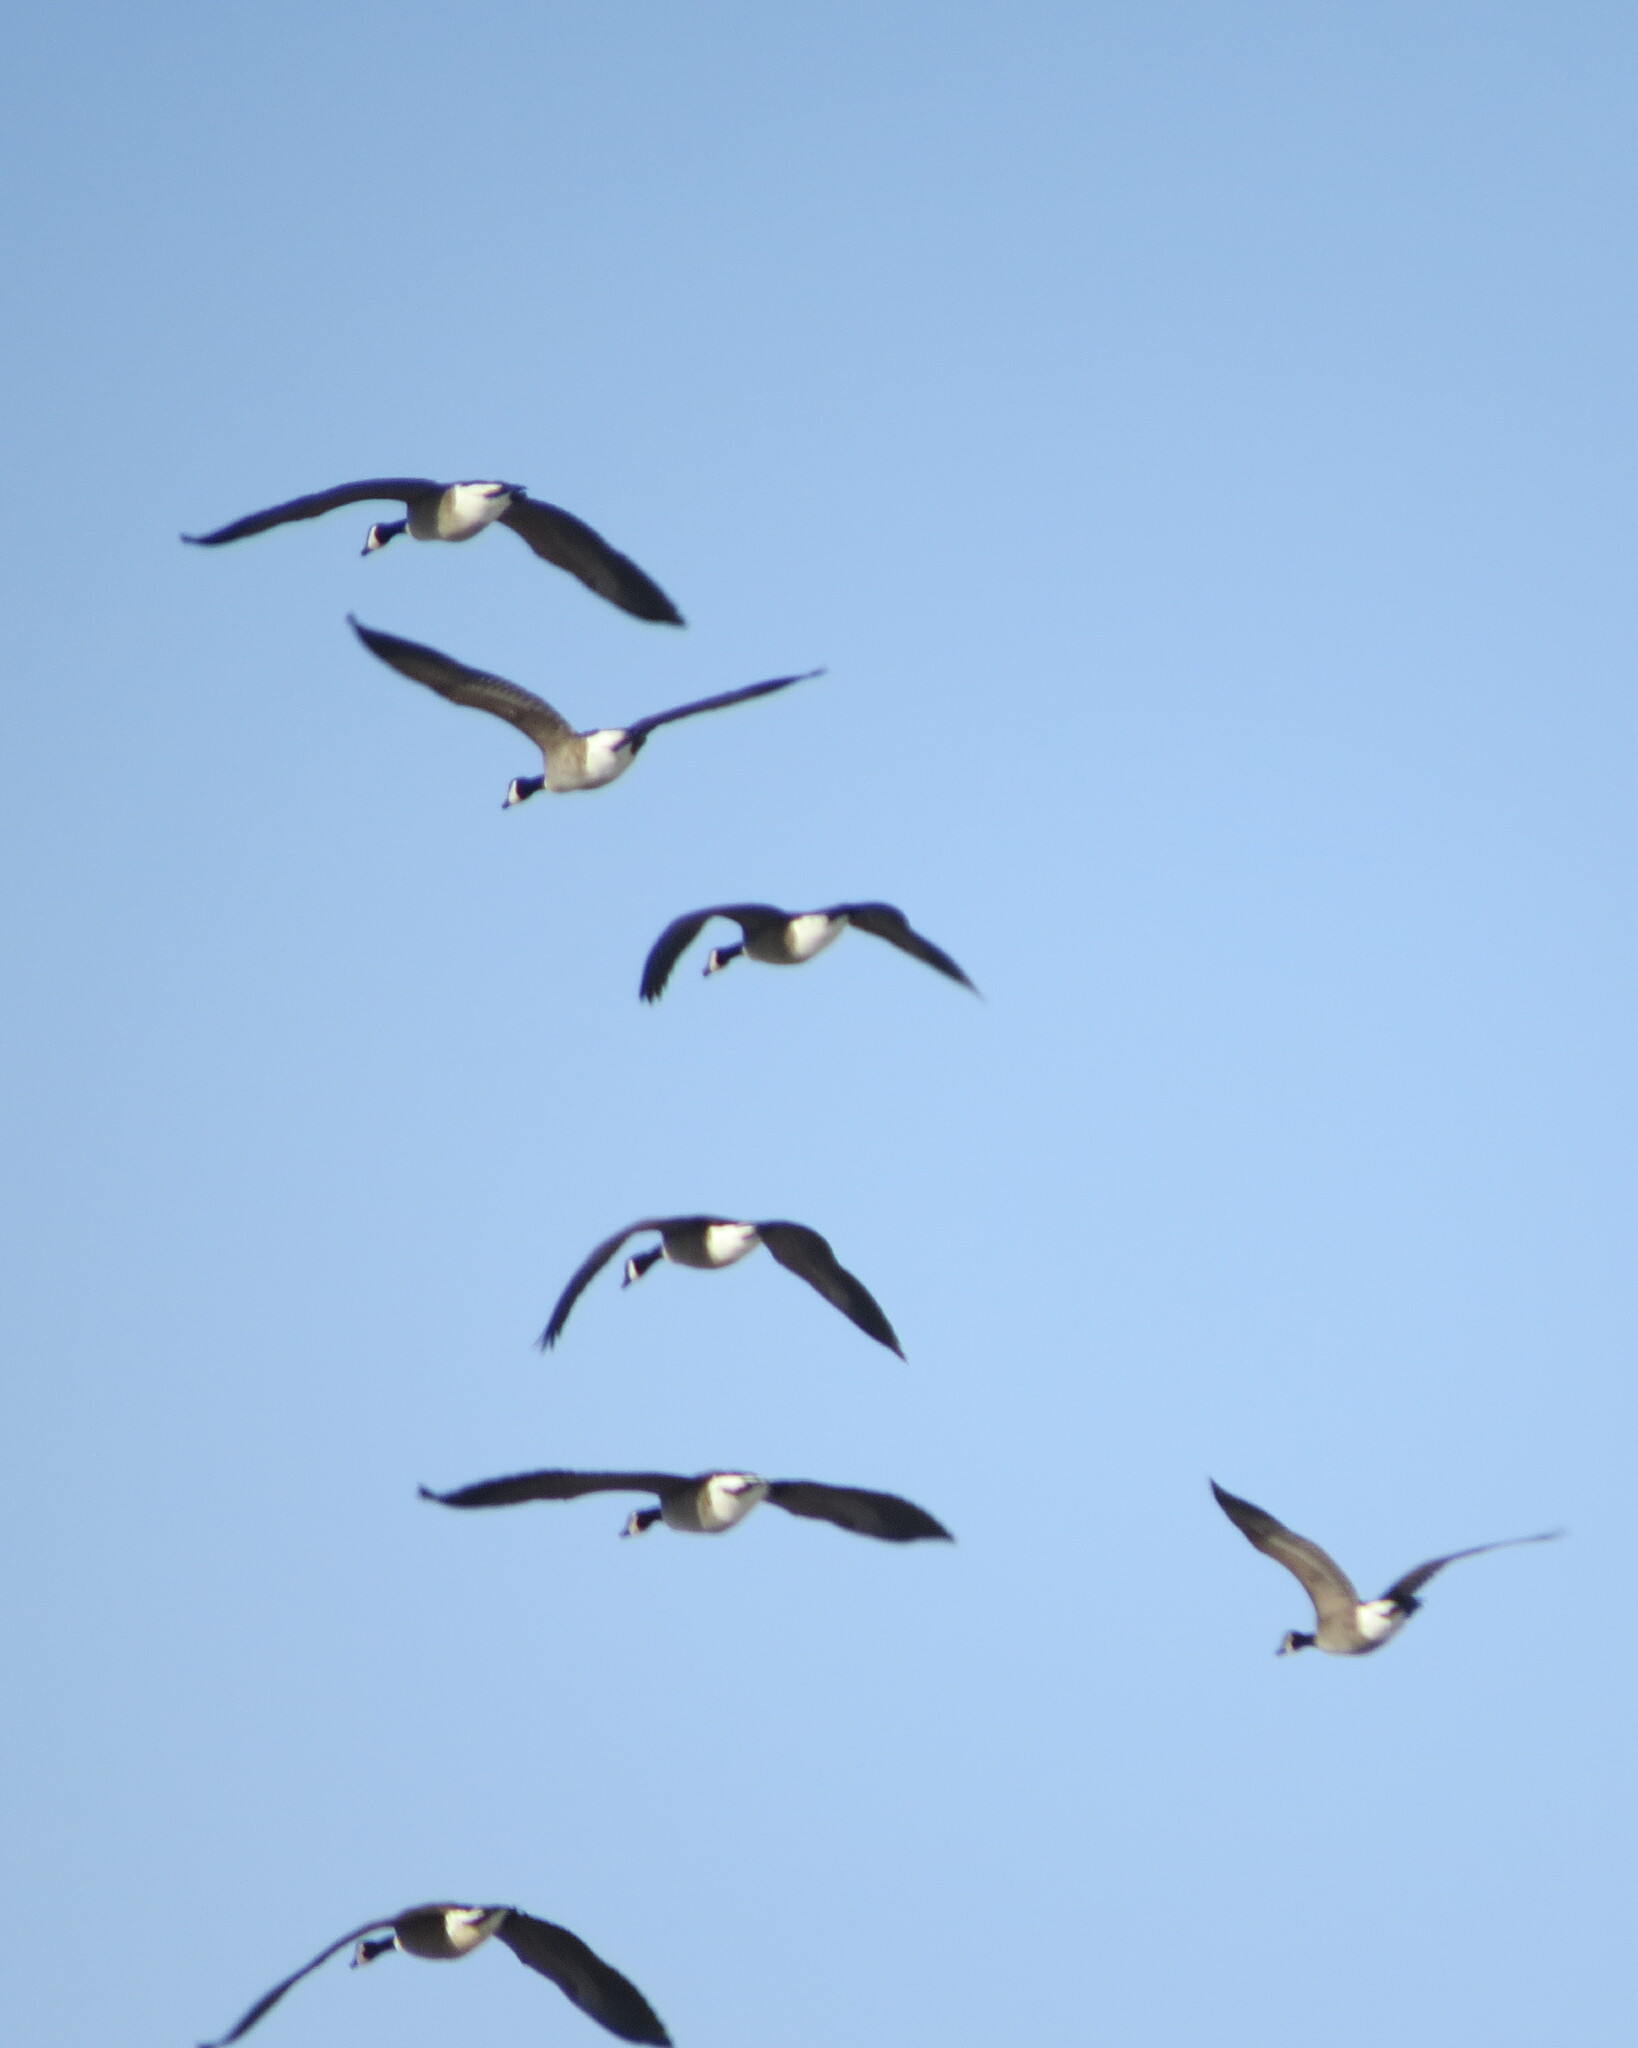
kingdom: Animalia
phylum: Chordata
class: Aves
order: Anseriformes
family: Anatidae
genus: Branta
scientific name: Branta canadensis
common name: Canada goose
